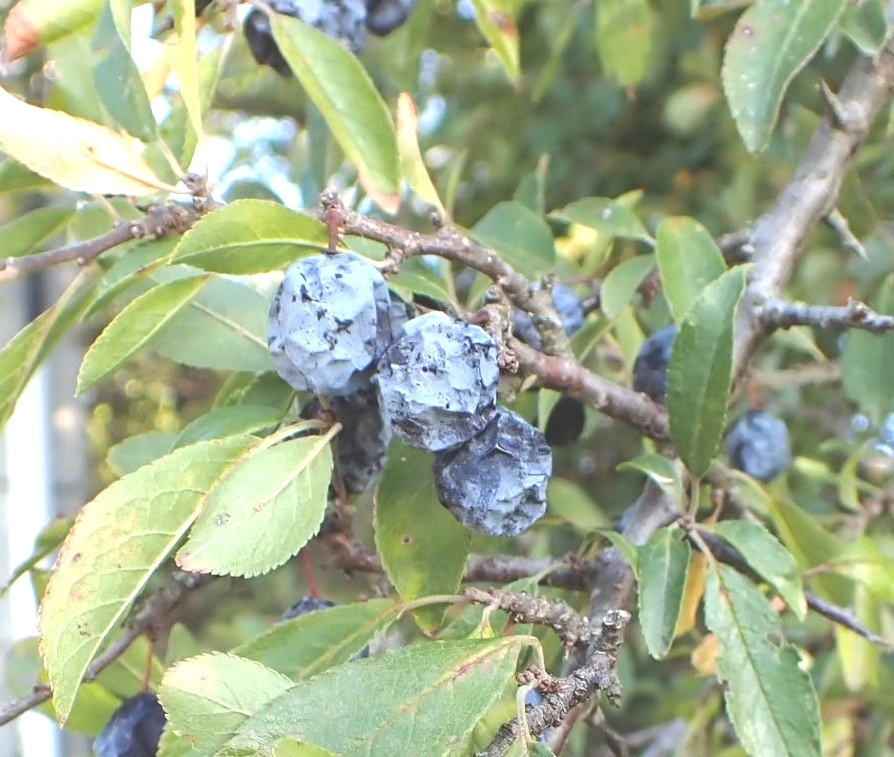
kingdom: Plantae
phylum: Tracheophyta
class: Magnoliopsida
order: Rosales
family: Rosaceae
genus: Prunus
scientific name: Prunus spinosa
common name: Blackthorn
